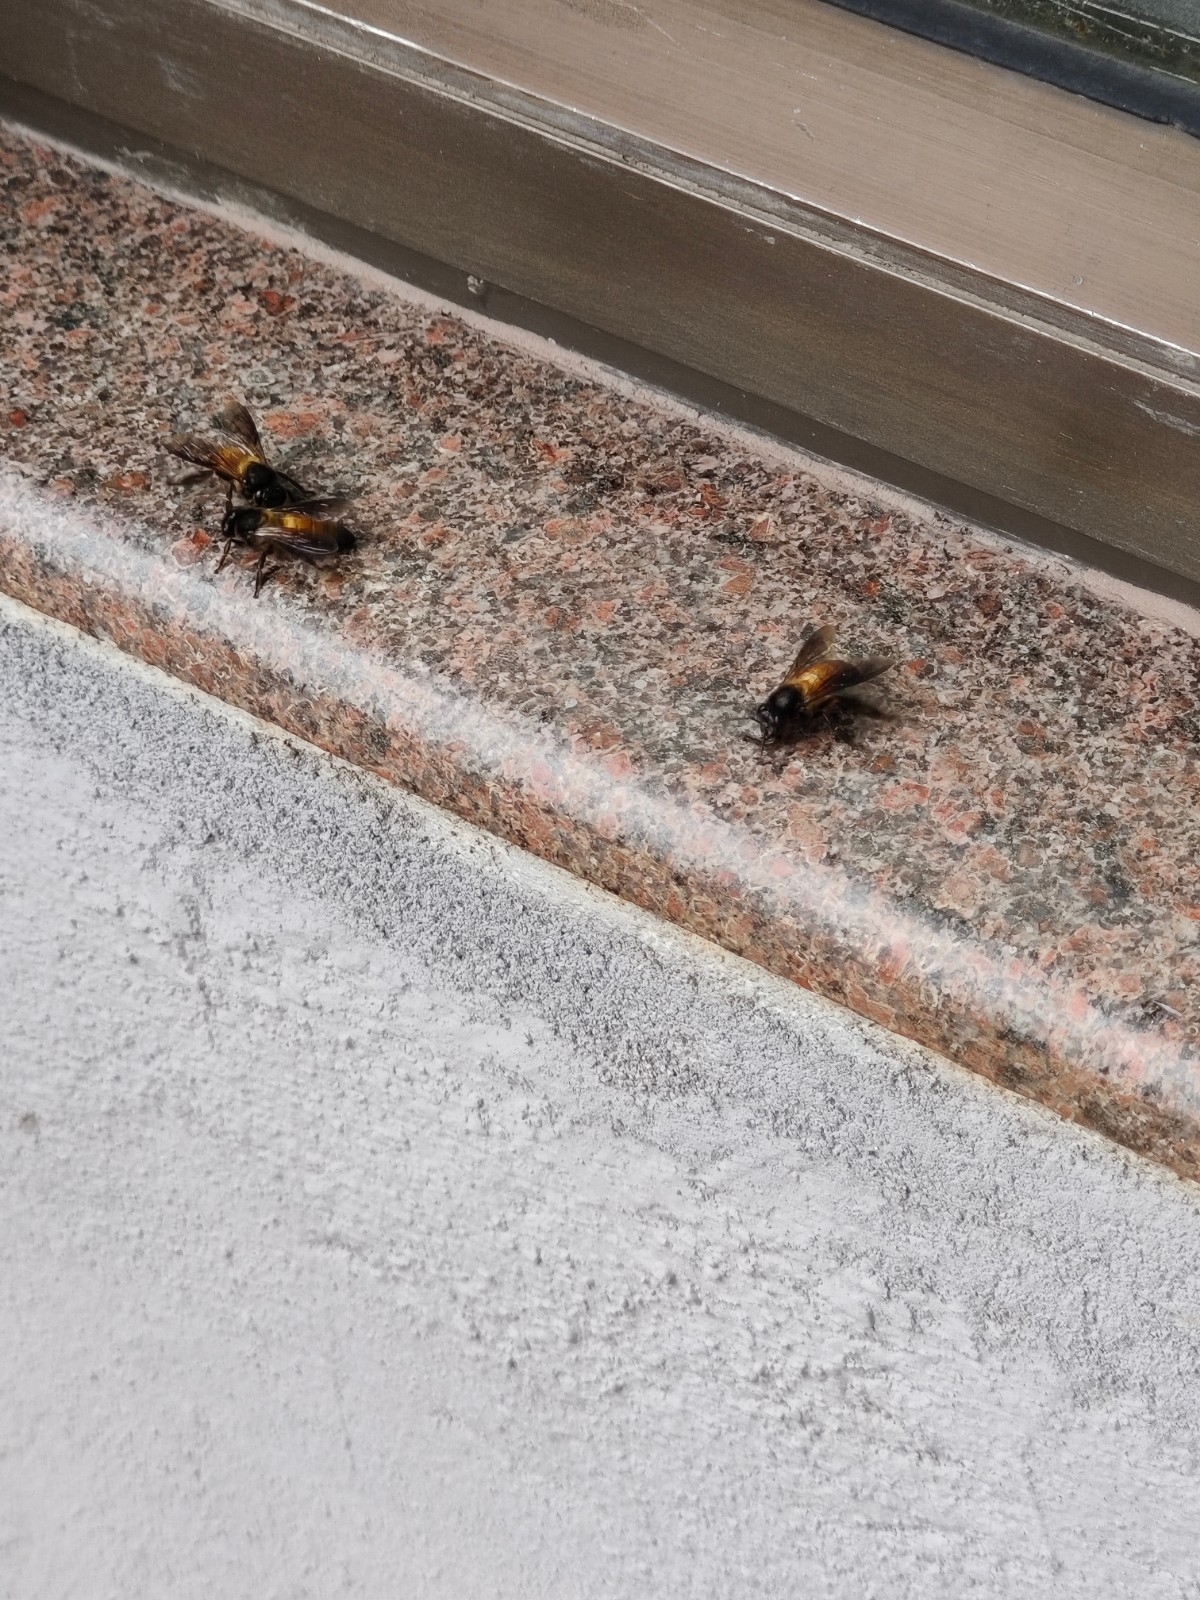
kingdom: Animalia
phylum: Arthropoda
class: Insecta
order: Hymenoptera
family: Apidae
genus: Apis
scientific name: Apis dorsata
